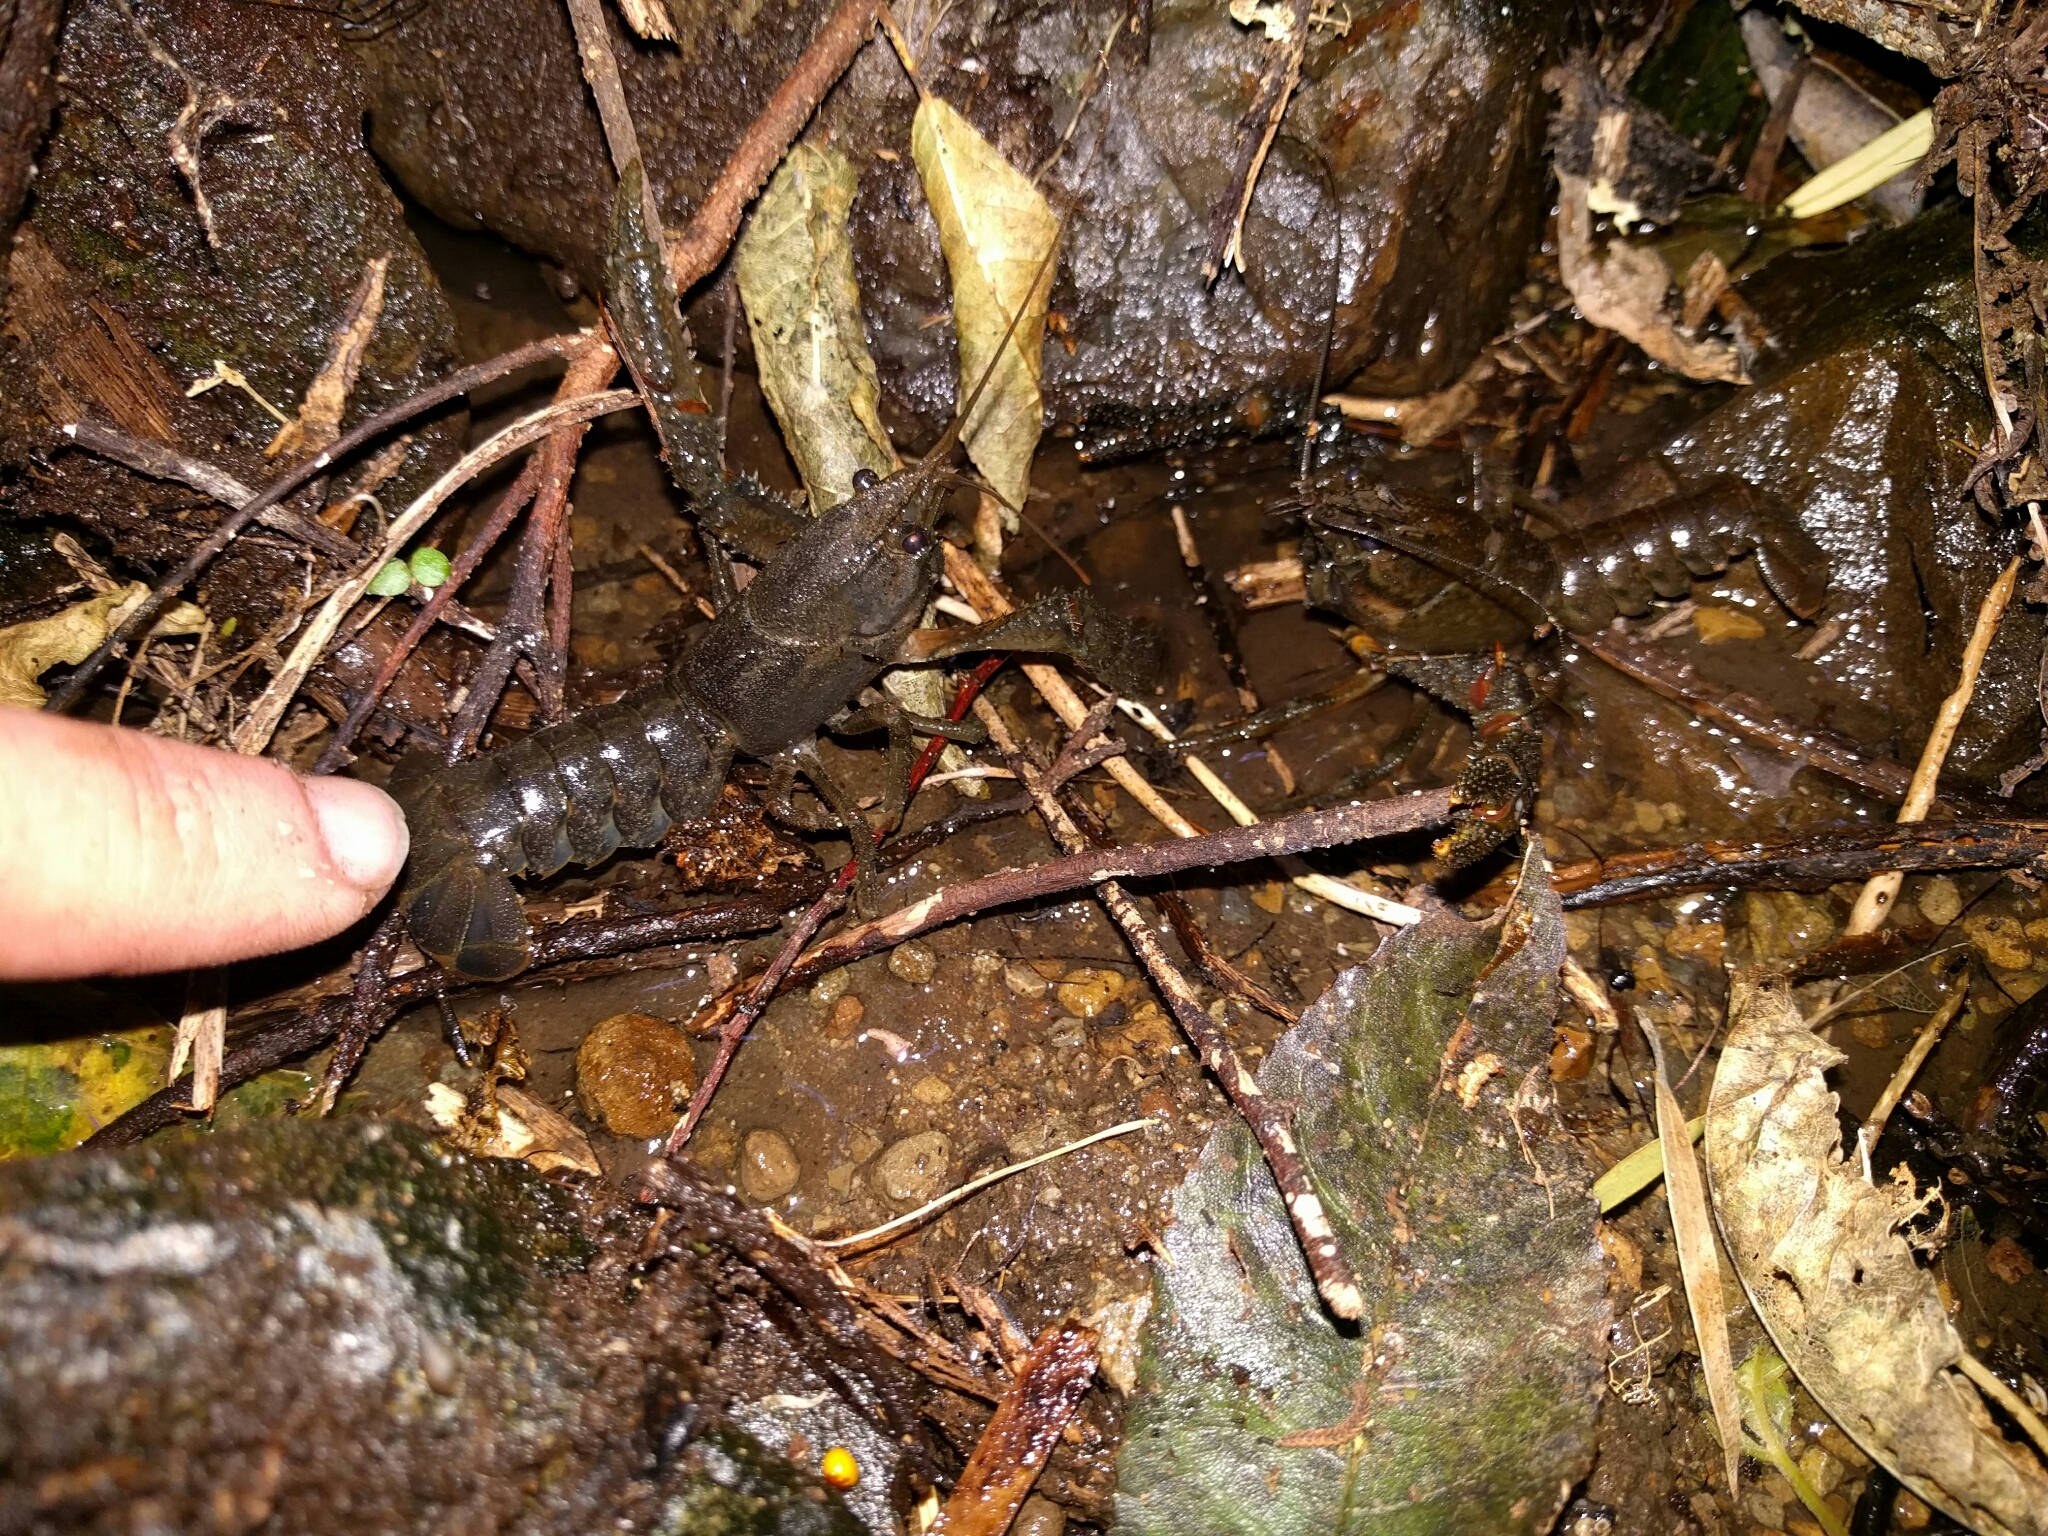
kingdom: Animalia
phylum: Arthropoda
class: Malacostraca
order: Decapoda
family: Parastacidae
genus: Paranephrops
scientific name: Paranephrops planifrons
